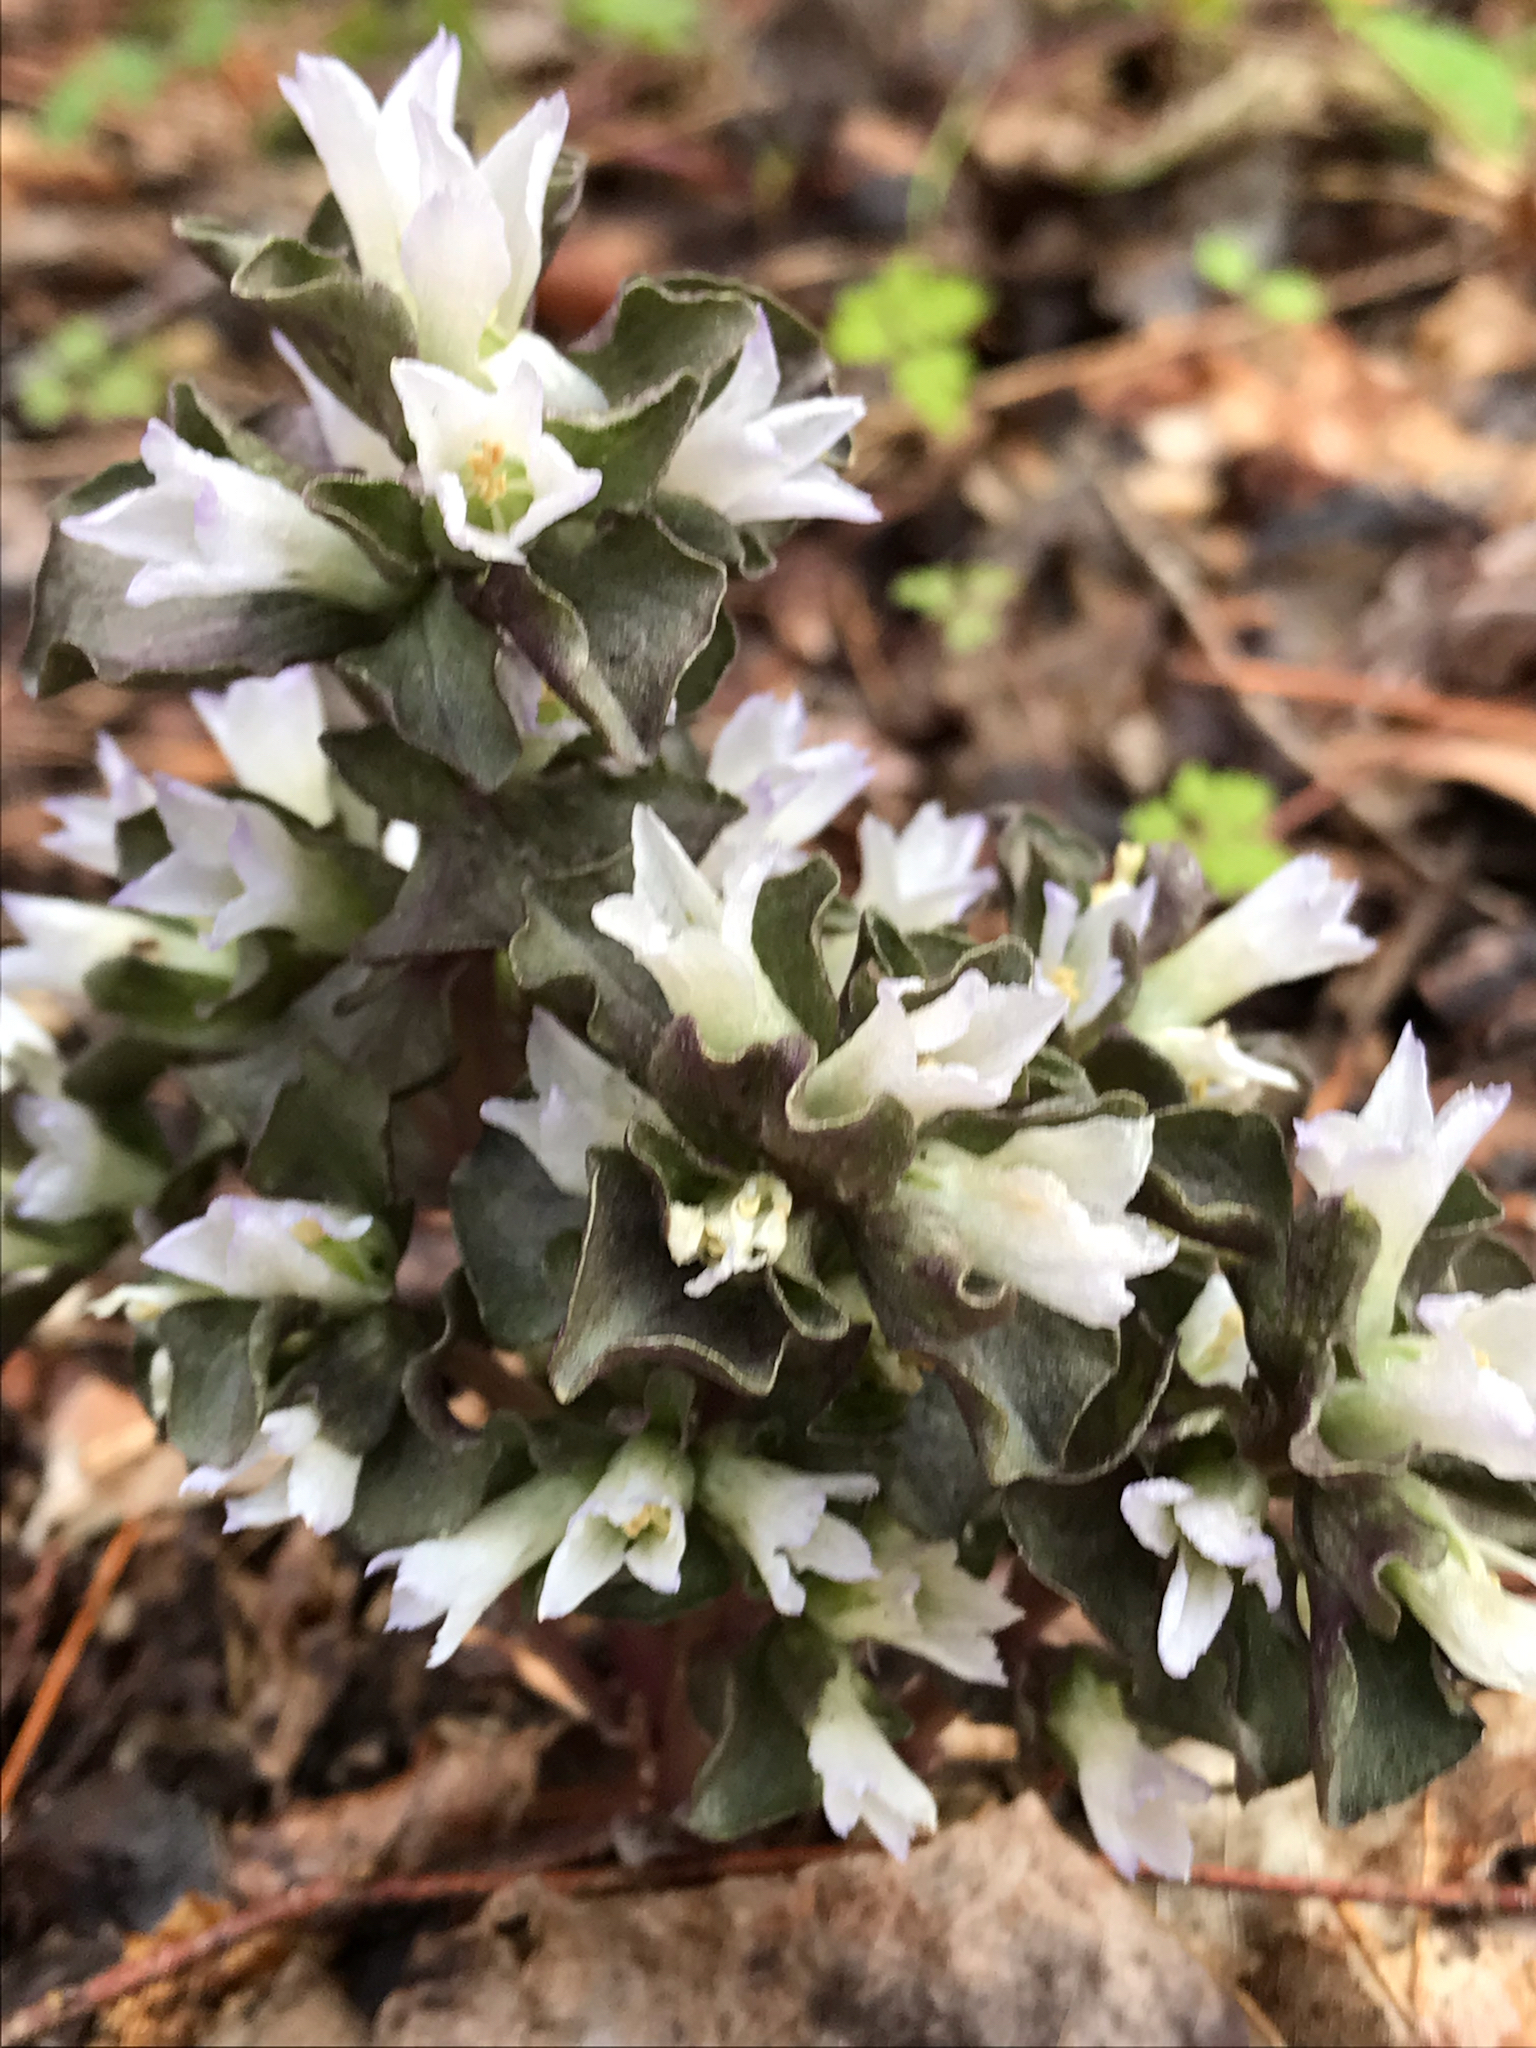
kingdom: Plantae
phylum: Tracheophyta
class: Magnoliopsida
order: Gentianales
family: Gentianaceae
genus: Obolaria
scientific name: Obolaria virginica
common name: Pennywort
